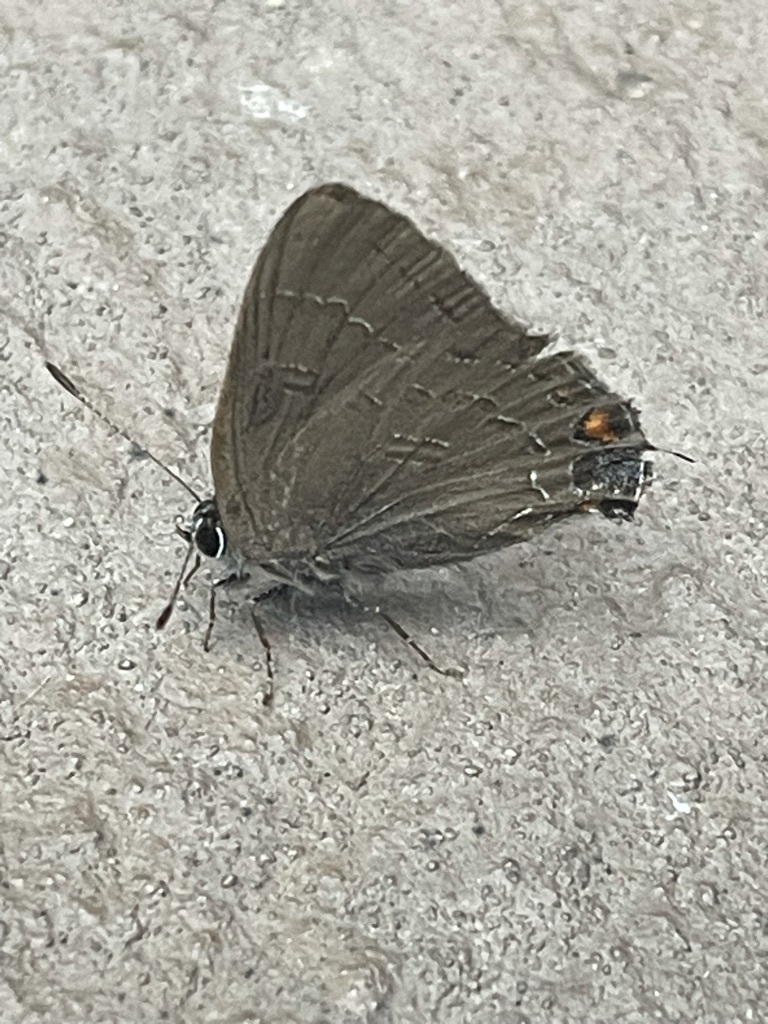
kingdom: Animalia
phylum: Arthropoda
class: Insecta
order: Lepidoptera
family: Lycaenidae
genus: Satyrium
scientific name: Satyrium calanus
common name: Banded hairstreak
